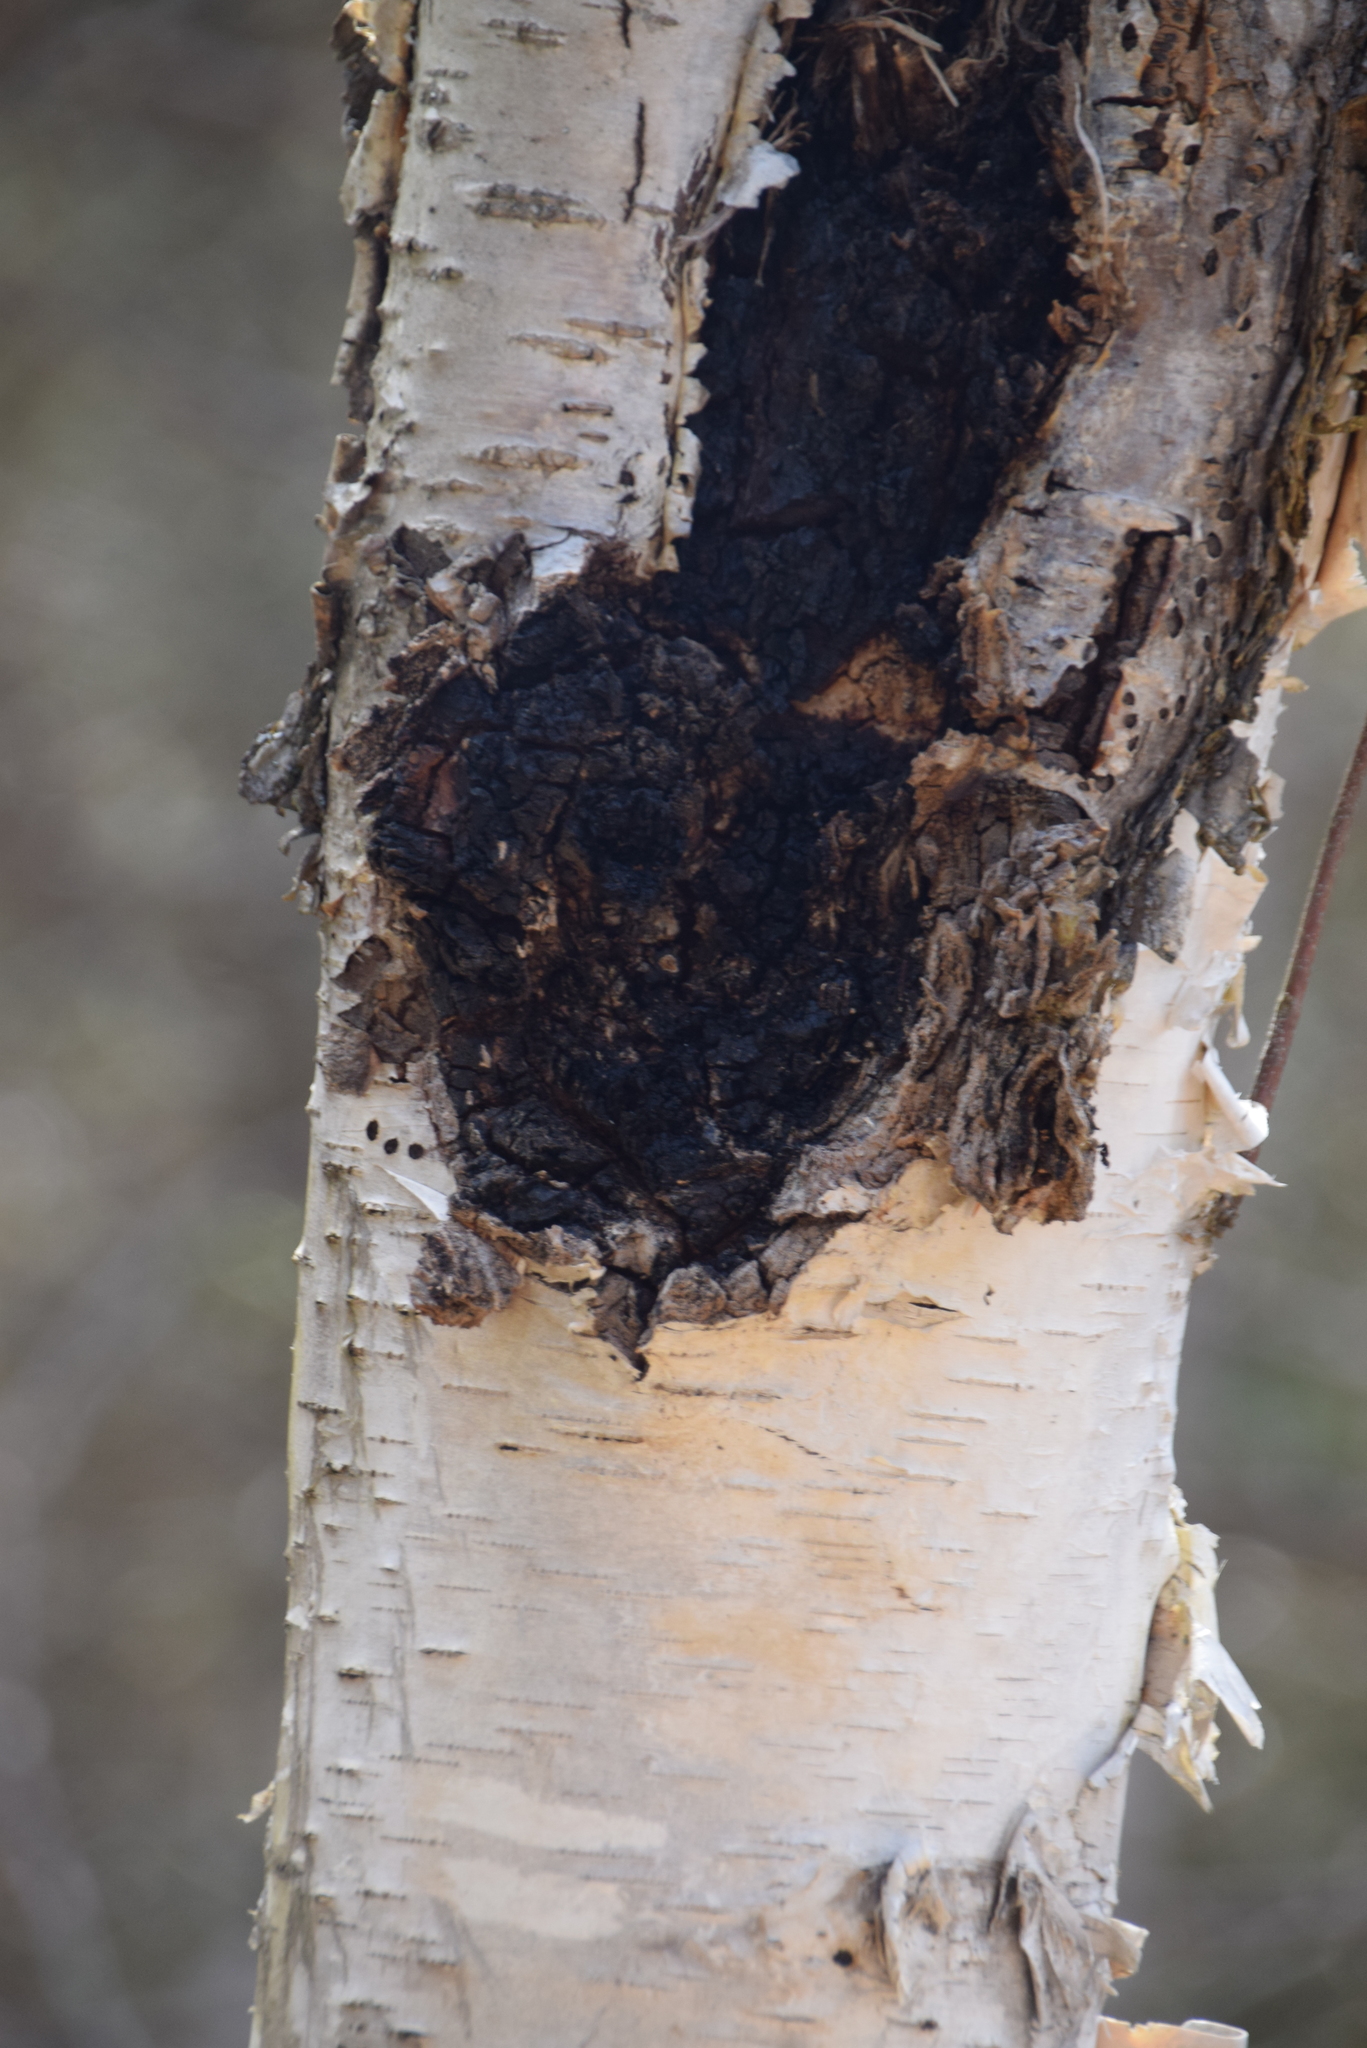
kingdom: Fungi
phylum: Basidiomycota
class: Agaricomycetes
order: Hymenochaetales
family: Hymenochaetaceae
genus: Inonotus
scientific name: Inonotus obliquus
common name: Chaga
